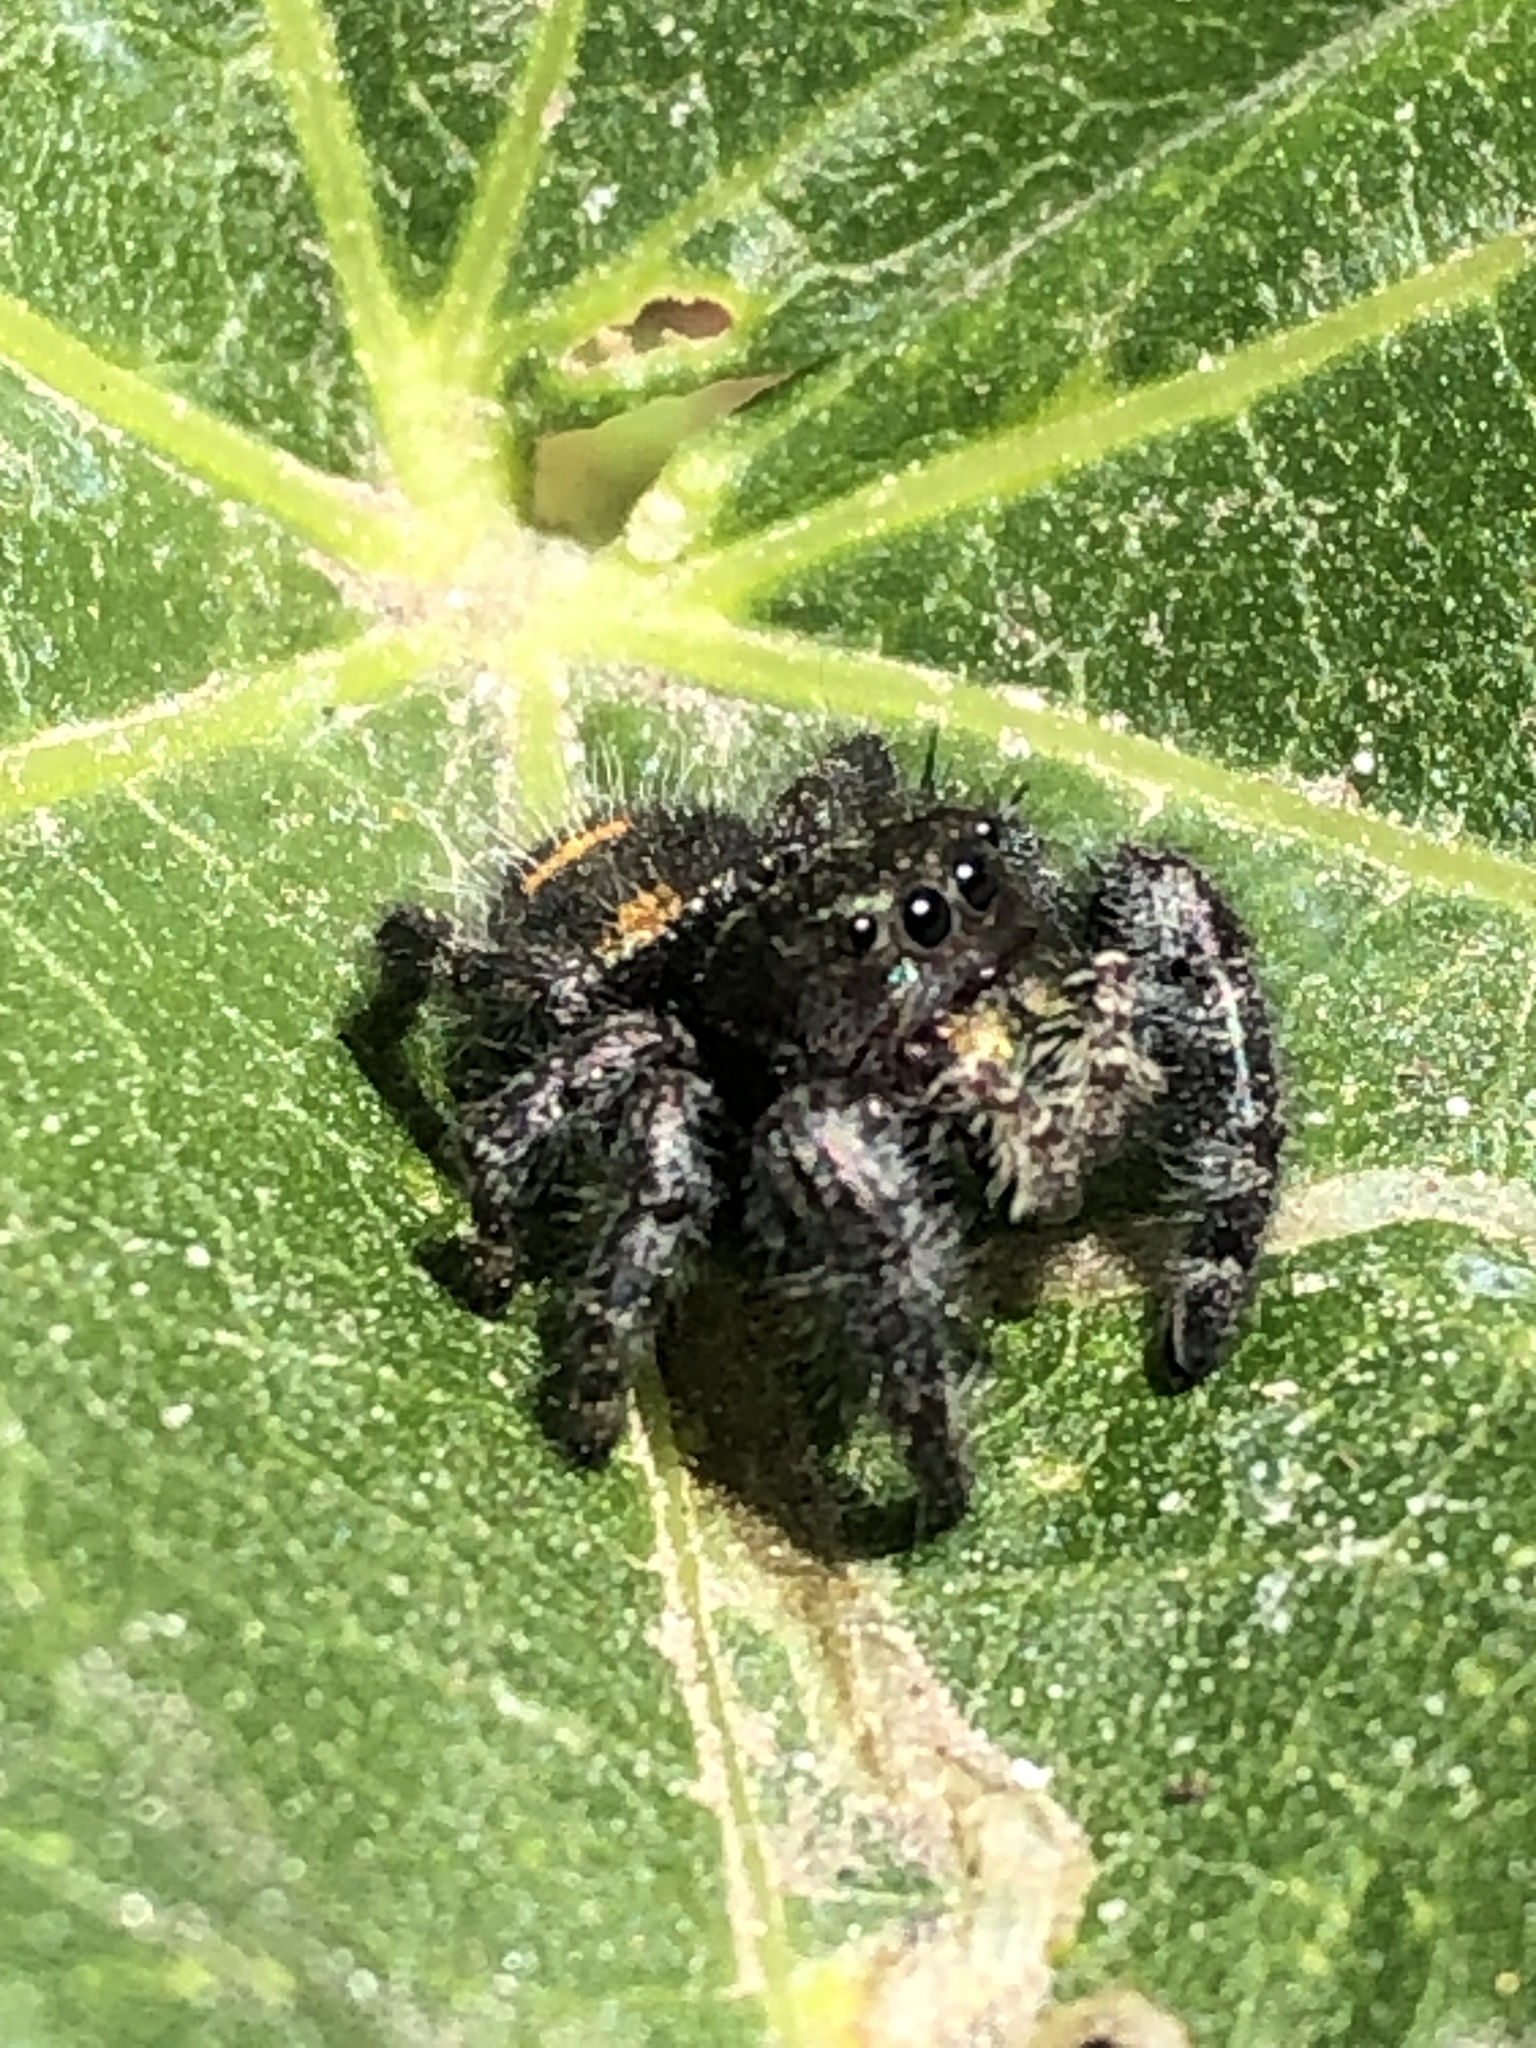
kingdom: Animalia
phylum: Arthropoda
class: Arachnida
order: Araneae
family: Salticidae
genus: Phidippus
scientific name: Phidippus audax
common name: Bold jumper
